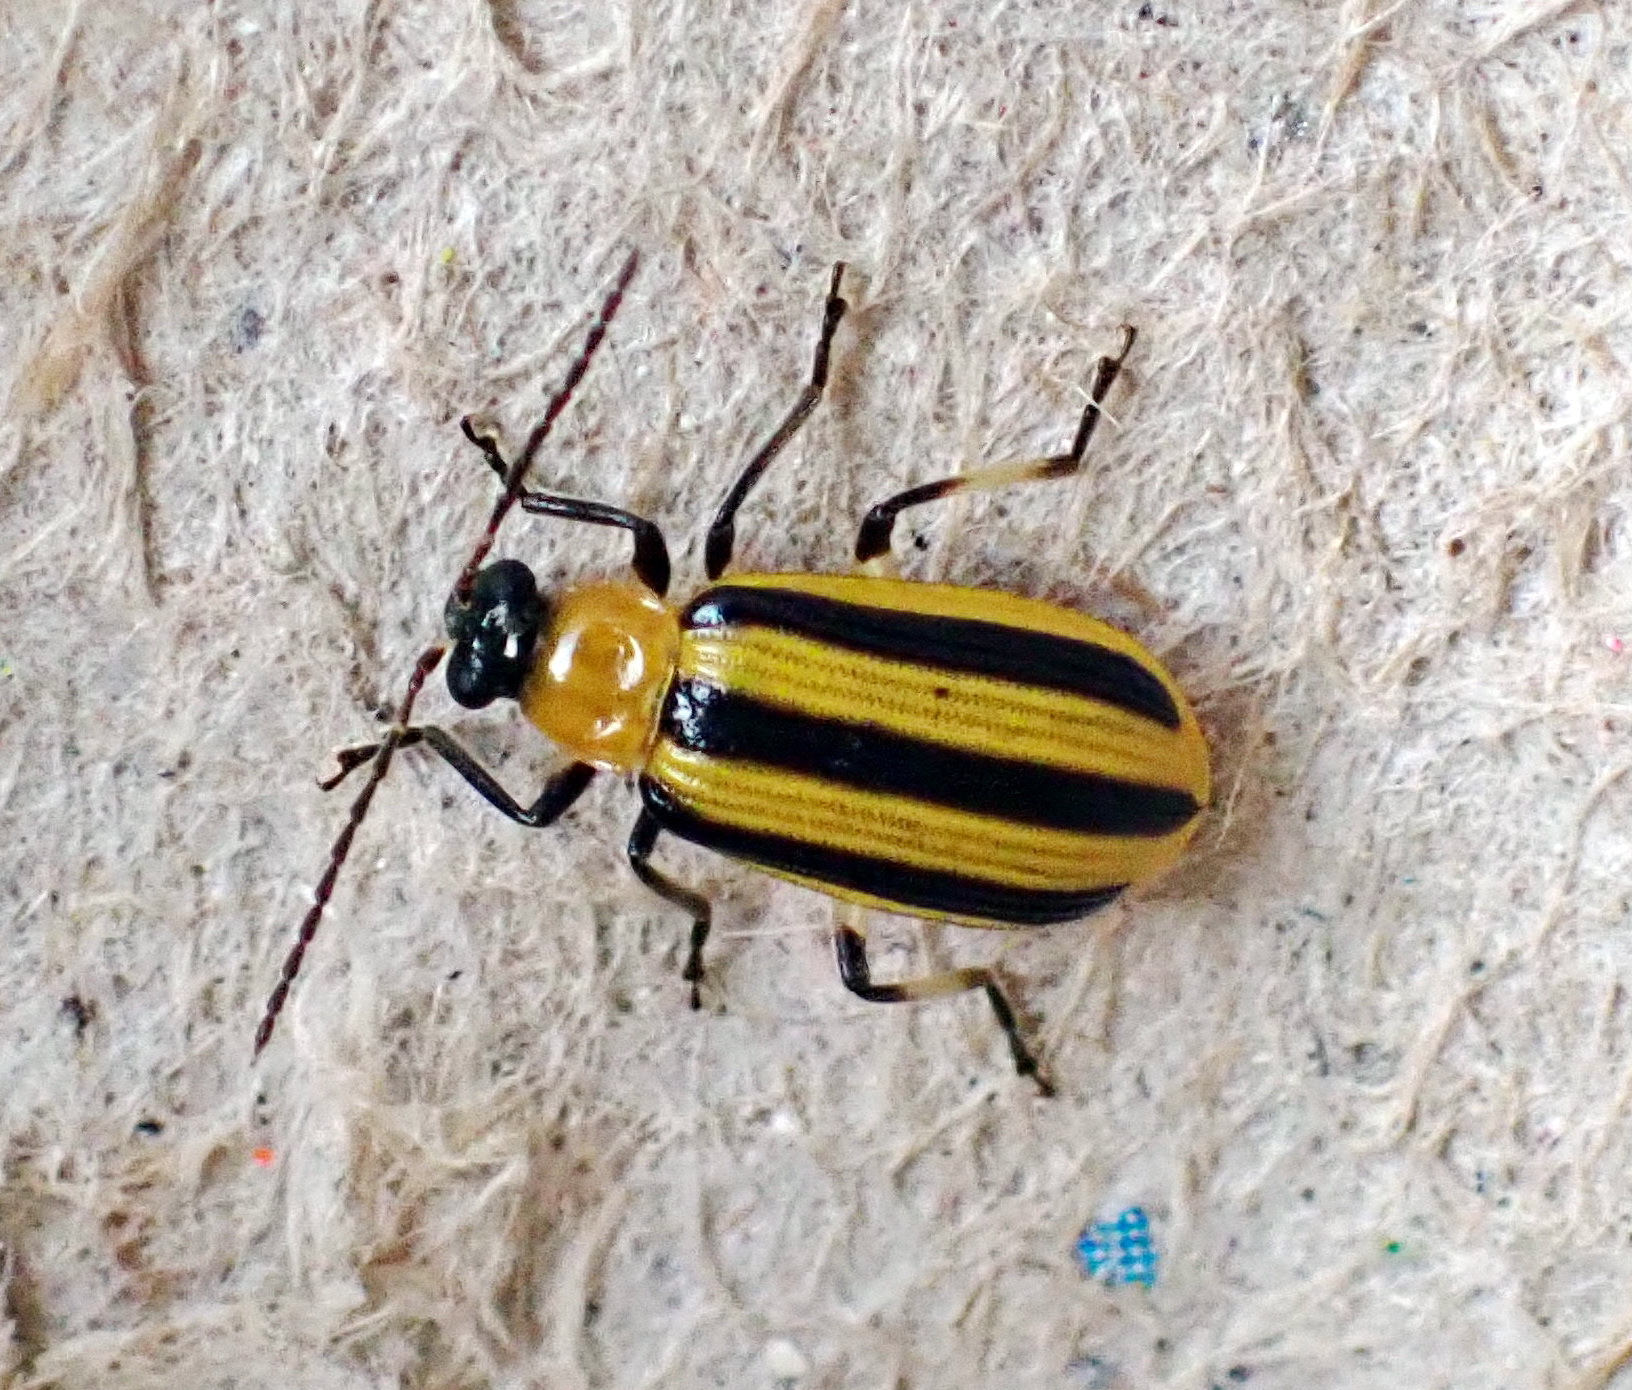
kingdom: Animalia
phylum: Arthropoda
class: Insecta
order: Coleoptera
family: Chrysomelidae
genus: Acalymma
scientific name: Acalymma vittatum
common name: Striped cucumber beetle
